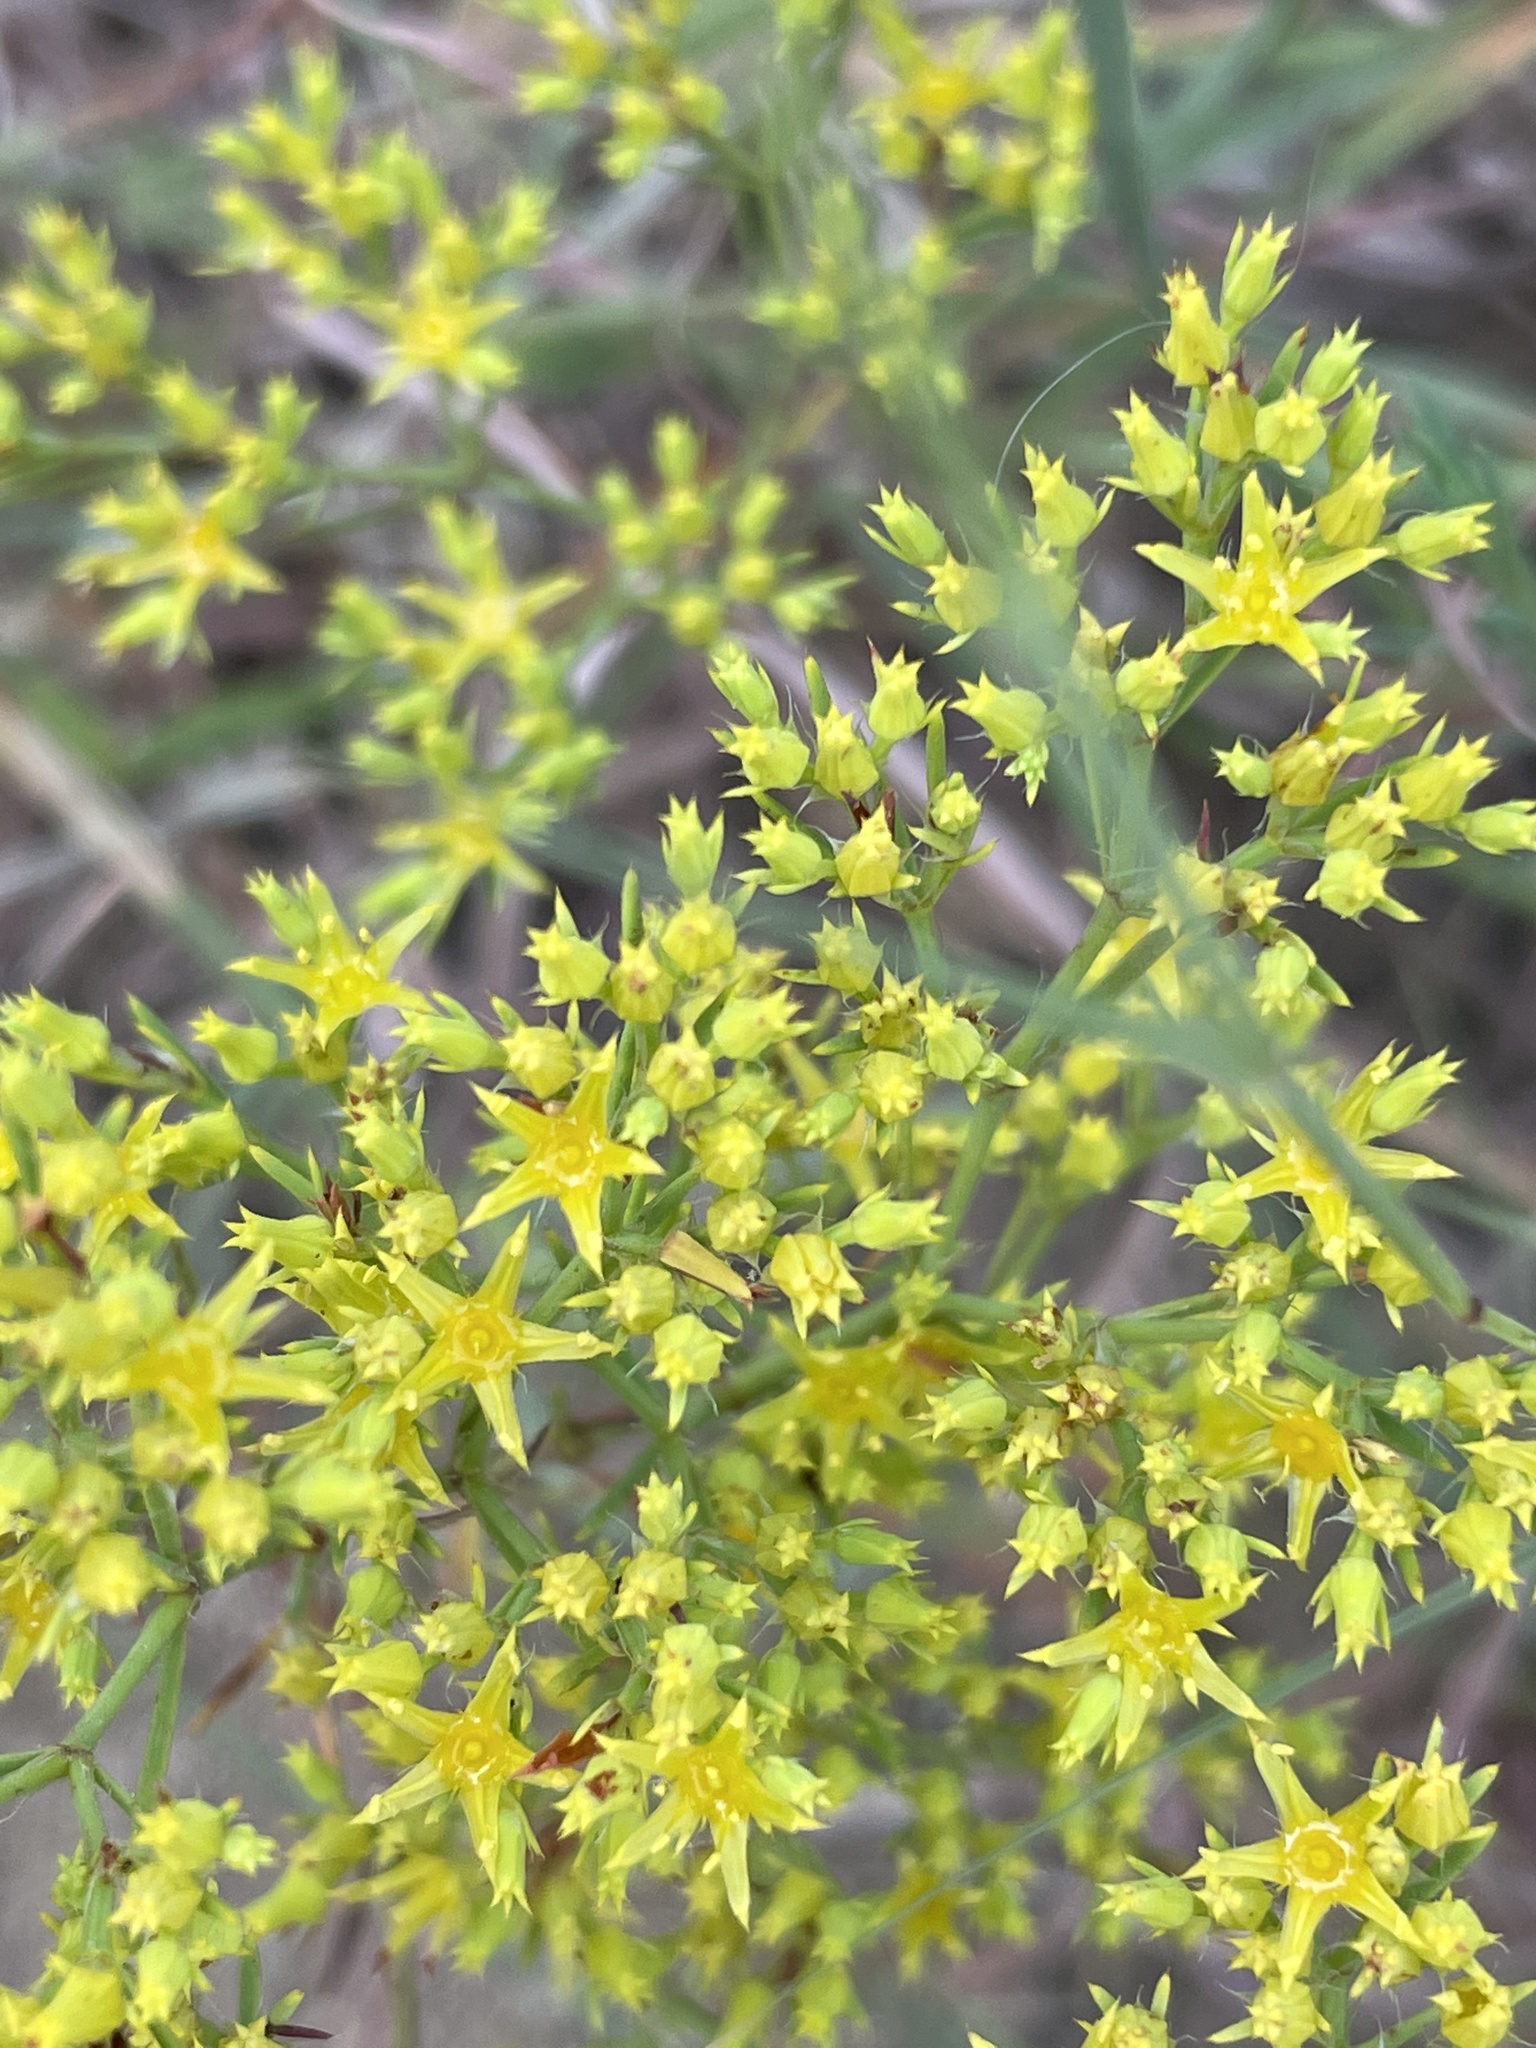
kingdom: Plantae
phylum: Tracheophyta
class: Magnoliopsida
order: Caryophyllales
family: Caryophyllaceae
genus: Paronychia
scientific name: Paronychia virginica
